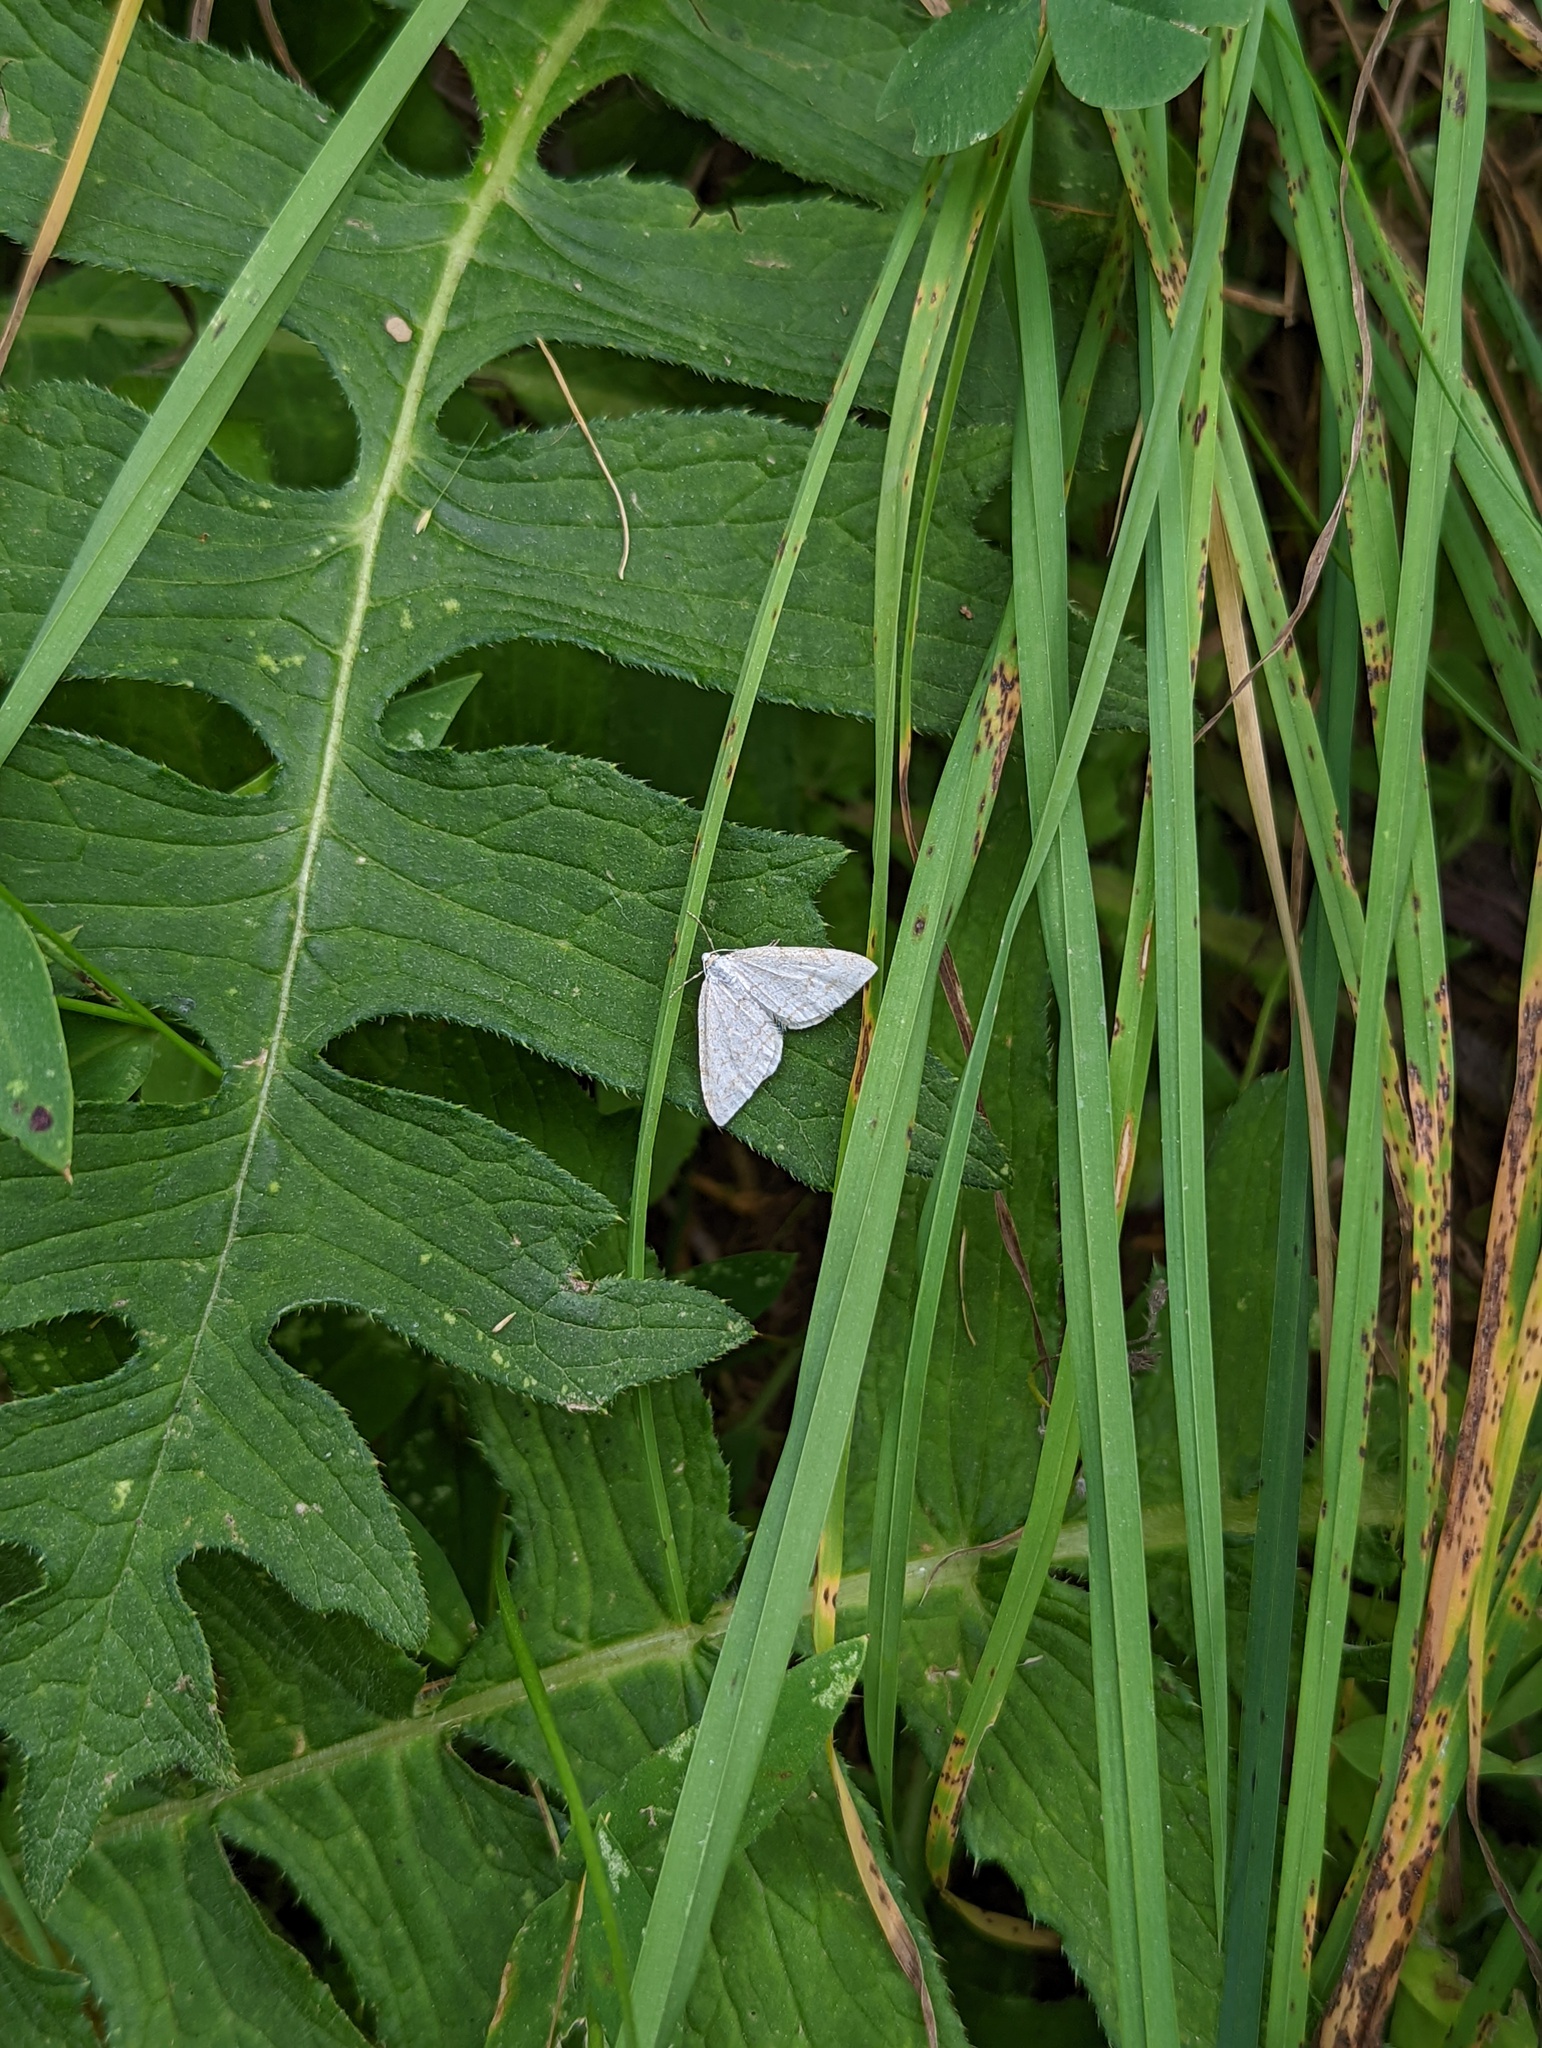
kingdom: Animalia
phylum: Arthropoda
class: Insecta
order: Lepidoptera
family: Geometridae
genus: Perizoma
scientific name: Perizoma verberata
